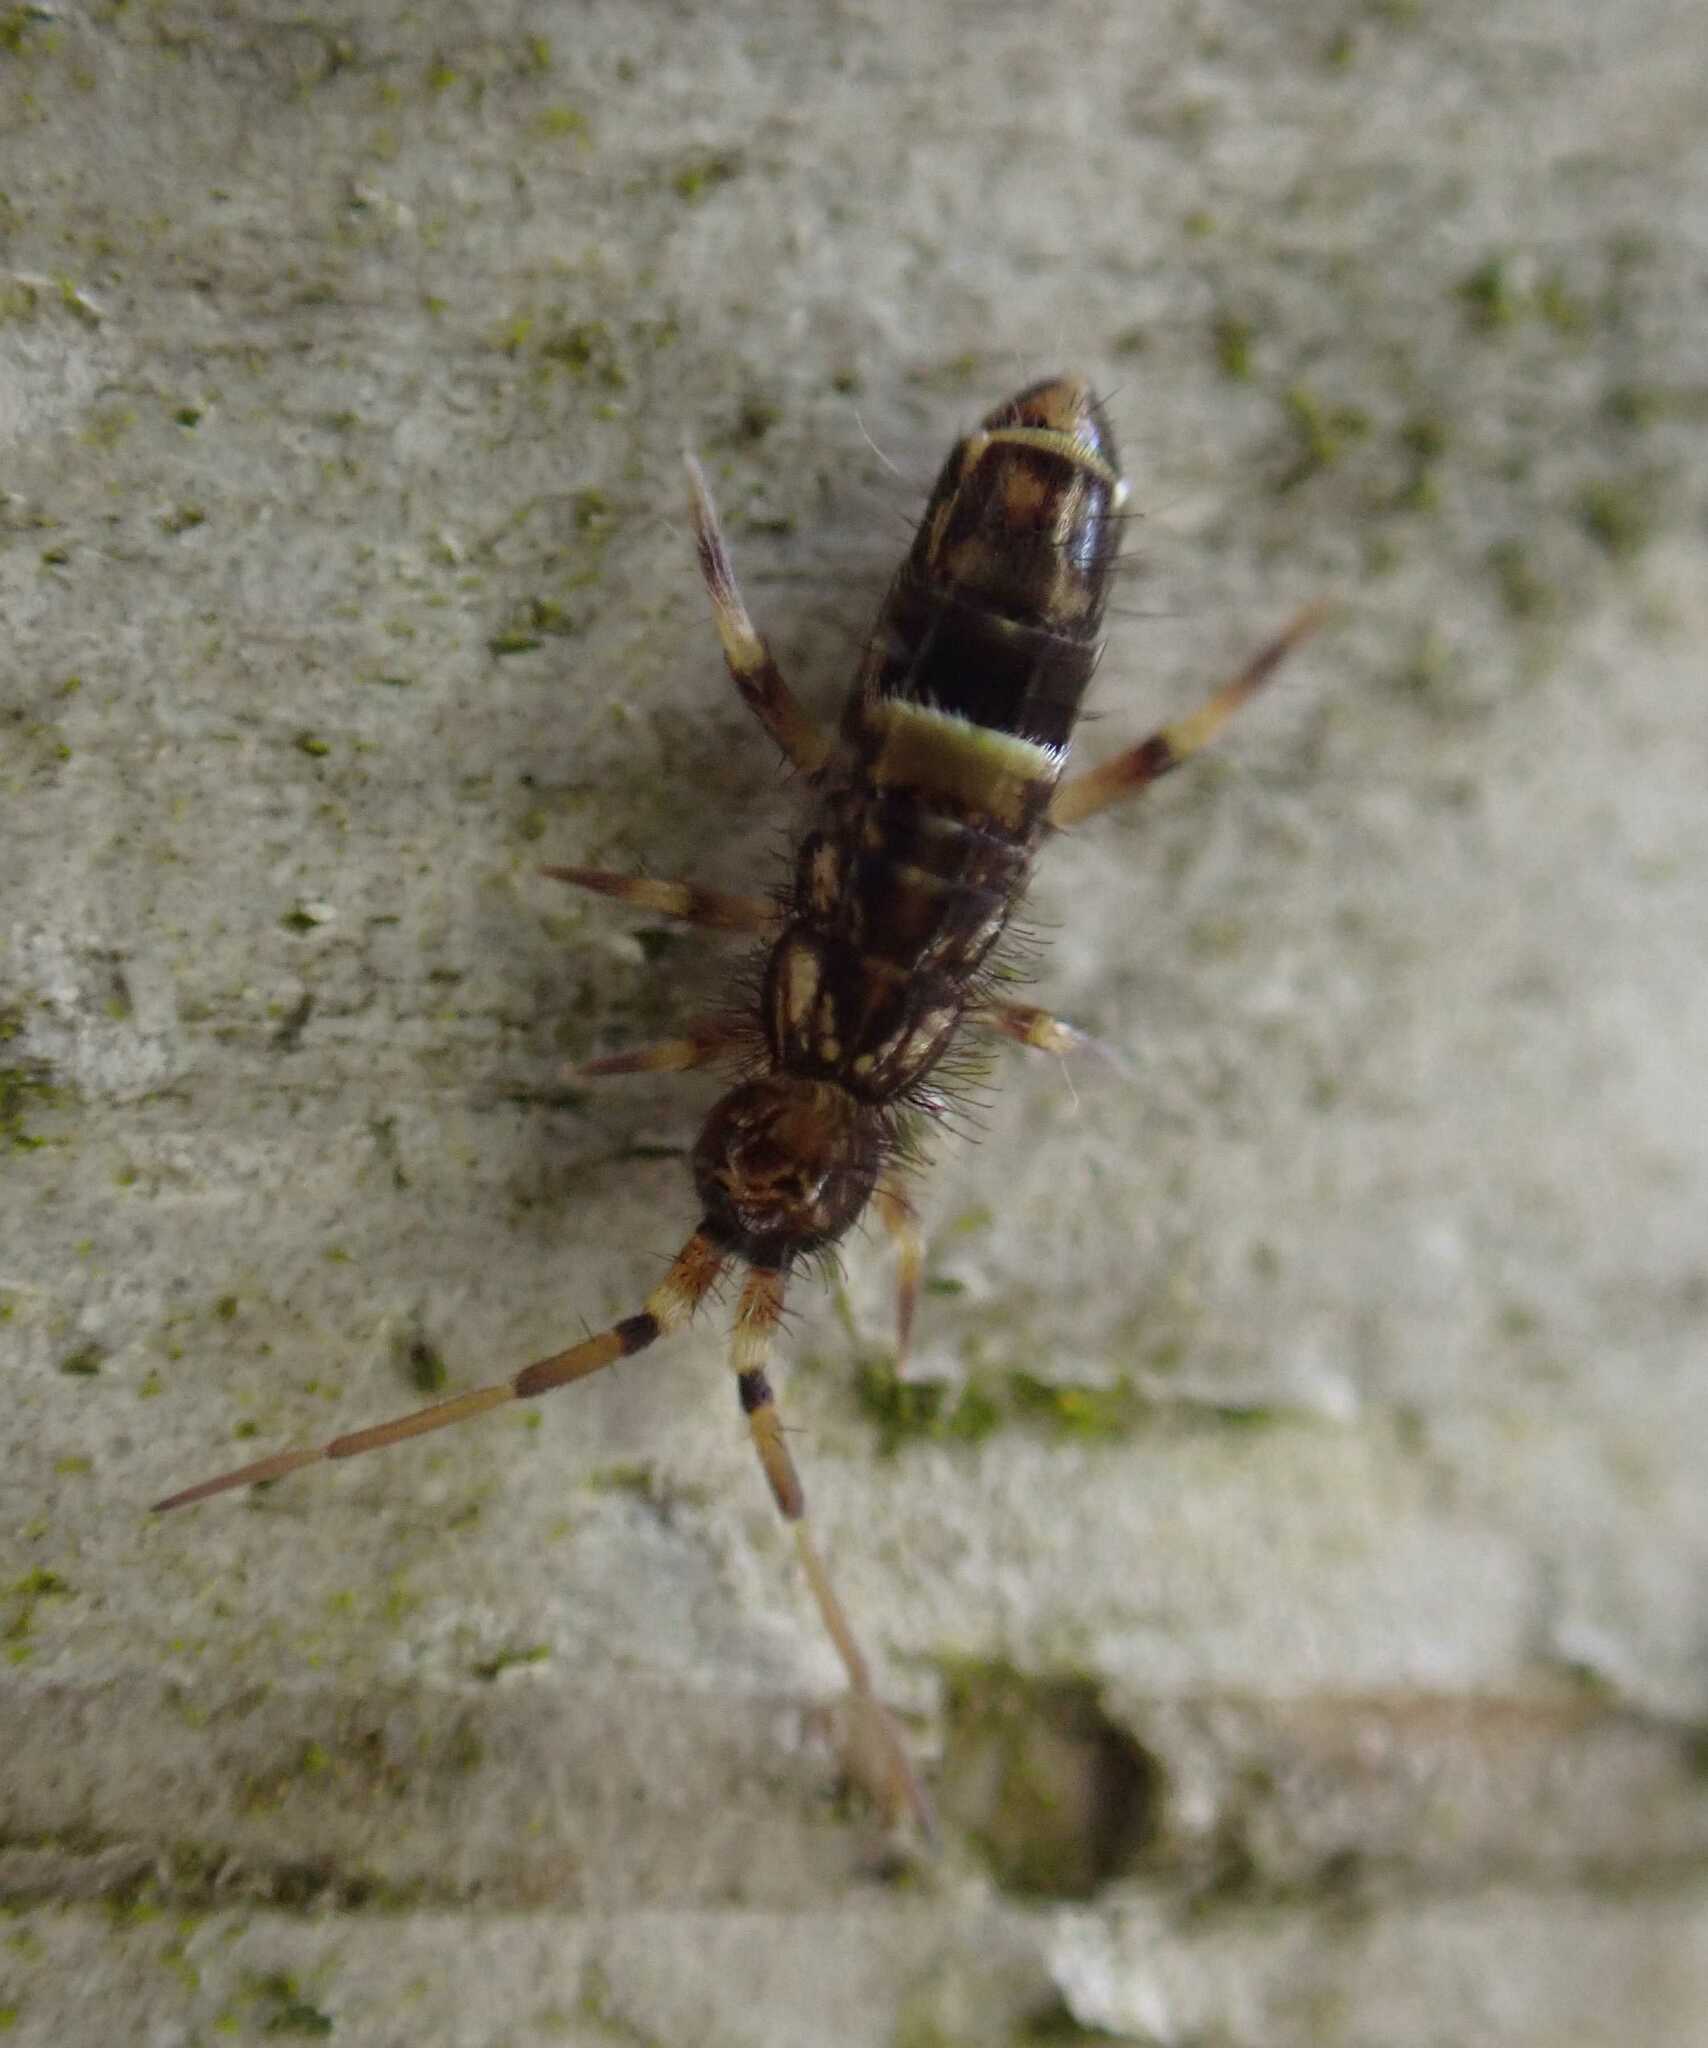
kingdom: Animalia
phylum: Arthropoda
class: Collembola
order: Entomobryomorpha
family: Orchesellidae
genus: Orchesella
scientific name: Orchesella cincta
